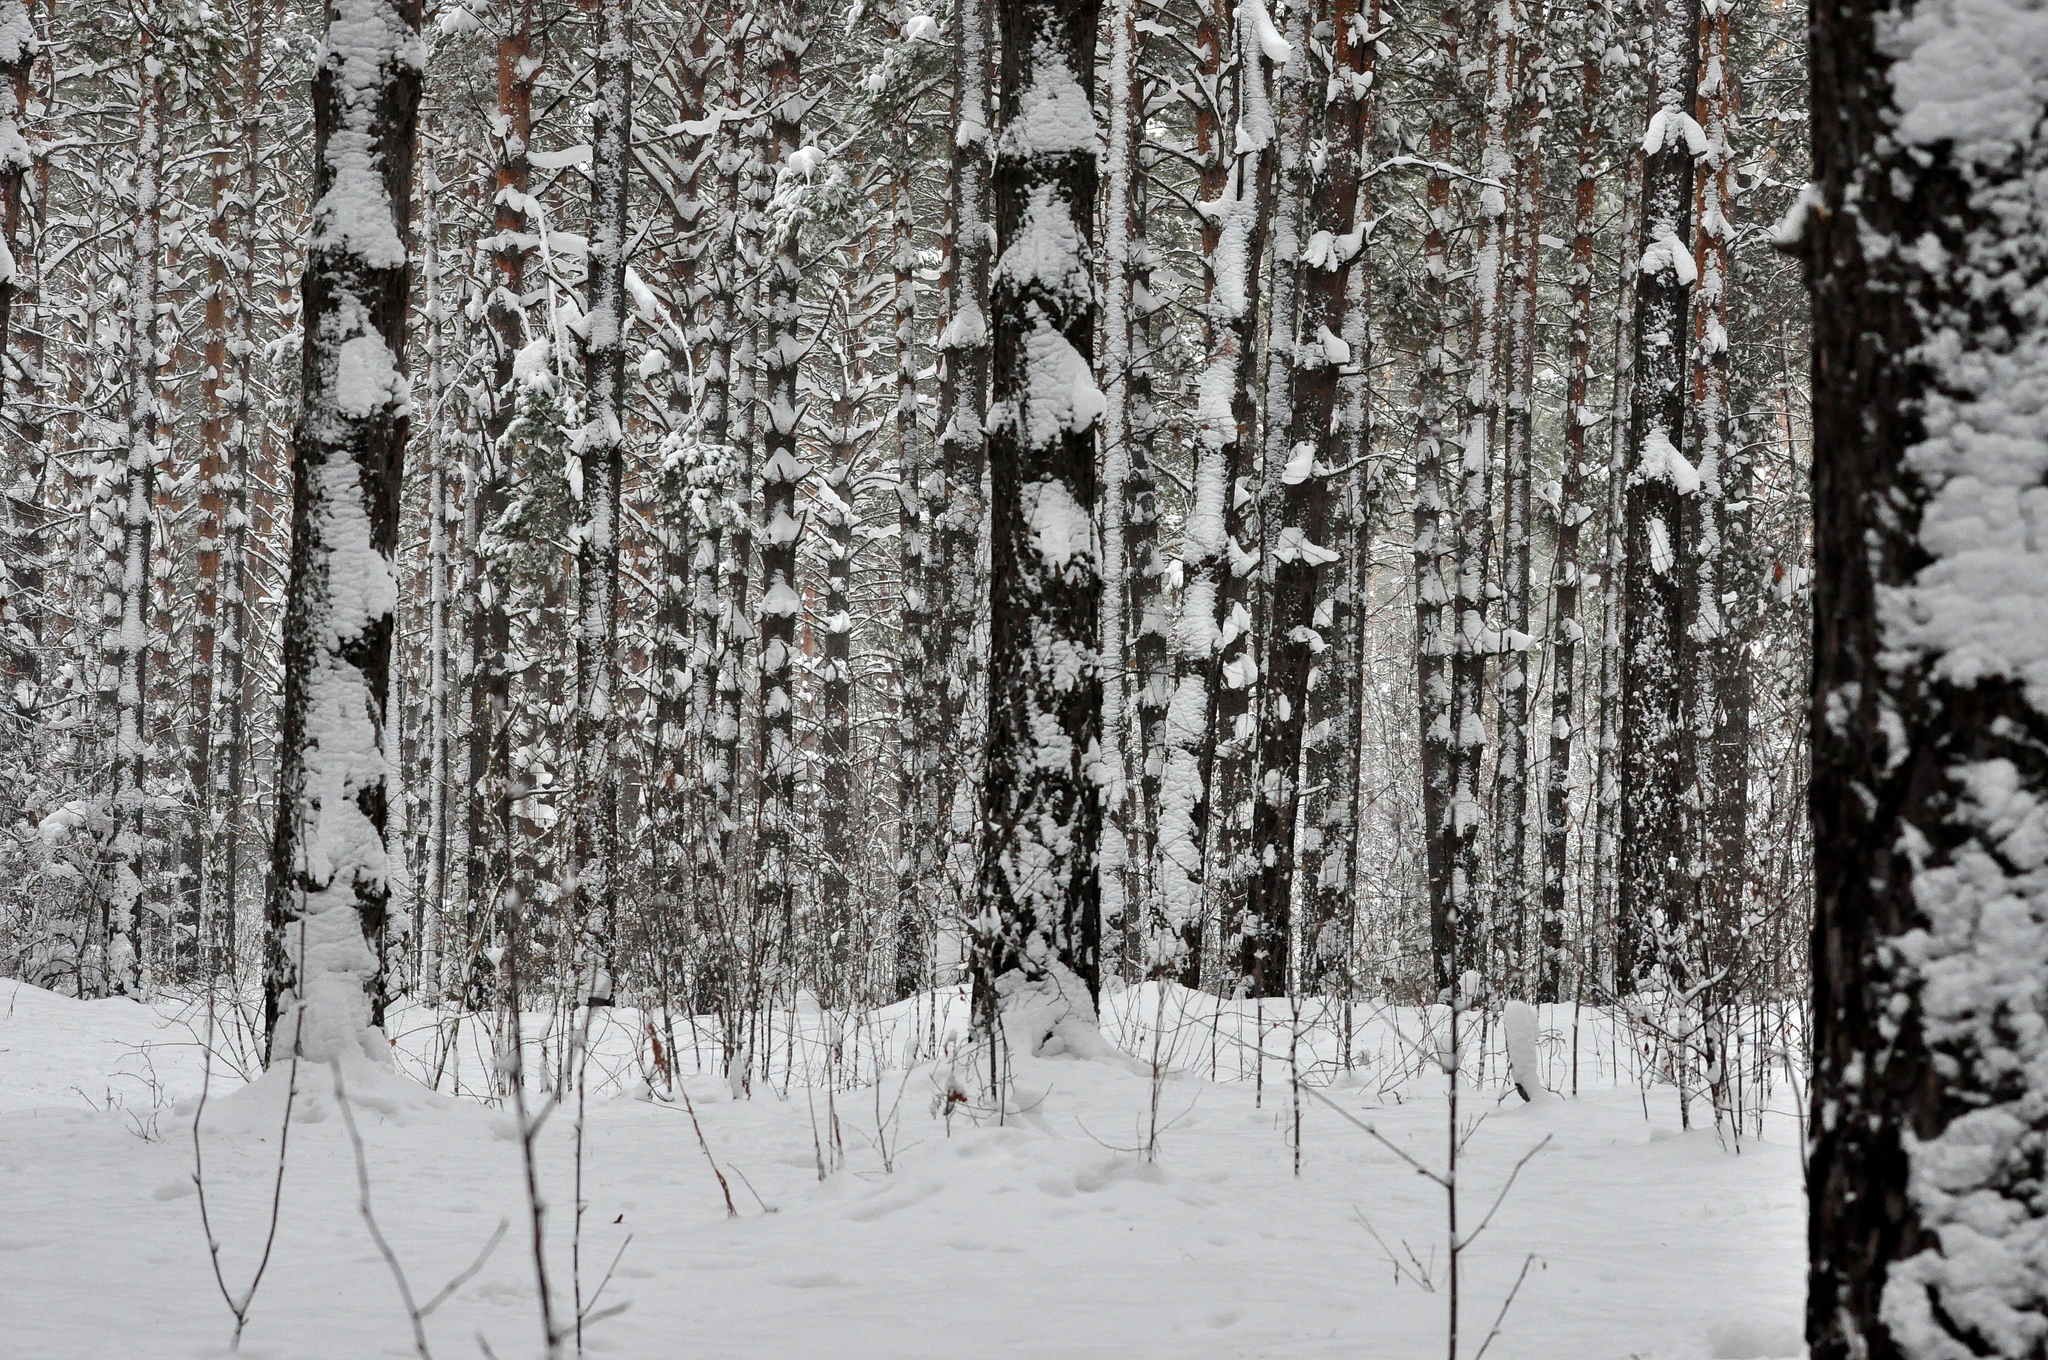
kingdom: Plantae
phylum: Tracheophyta
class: Pinopsida
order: Pinales
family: Pinaceae
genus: Pinus
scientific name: Pinus sylvestris
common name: Scots pine
